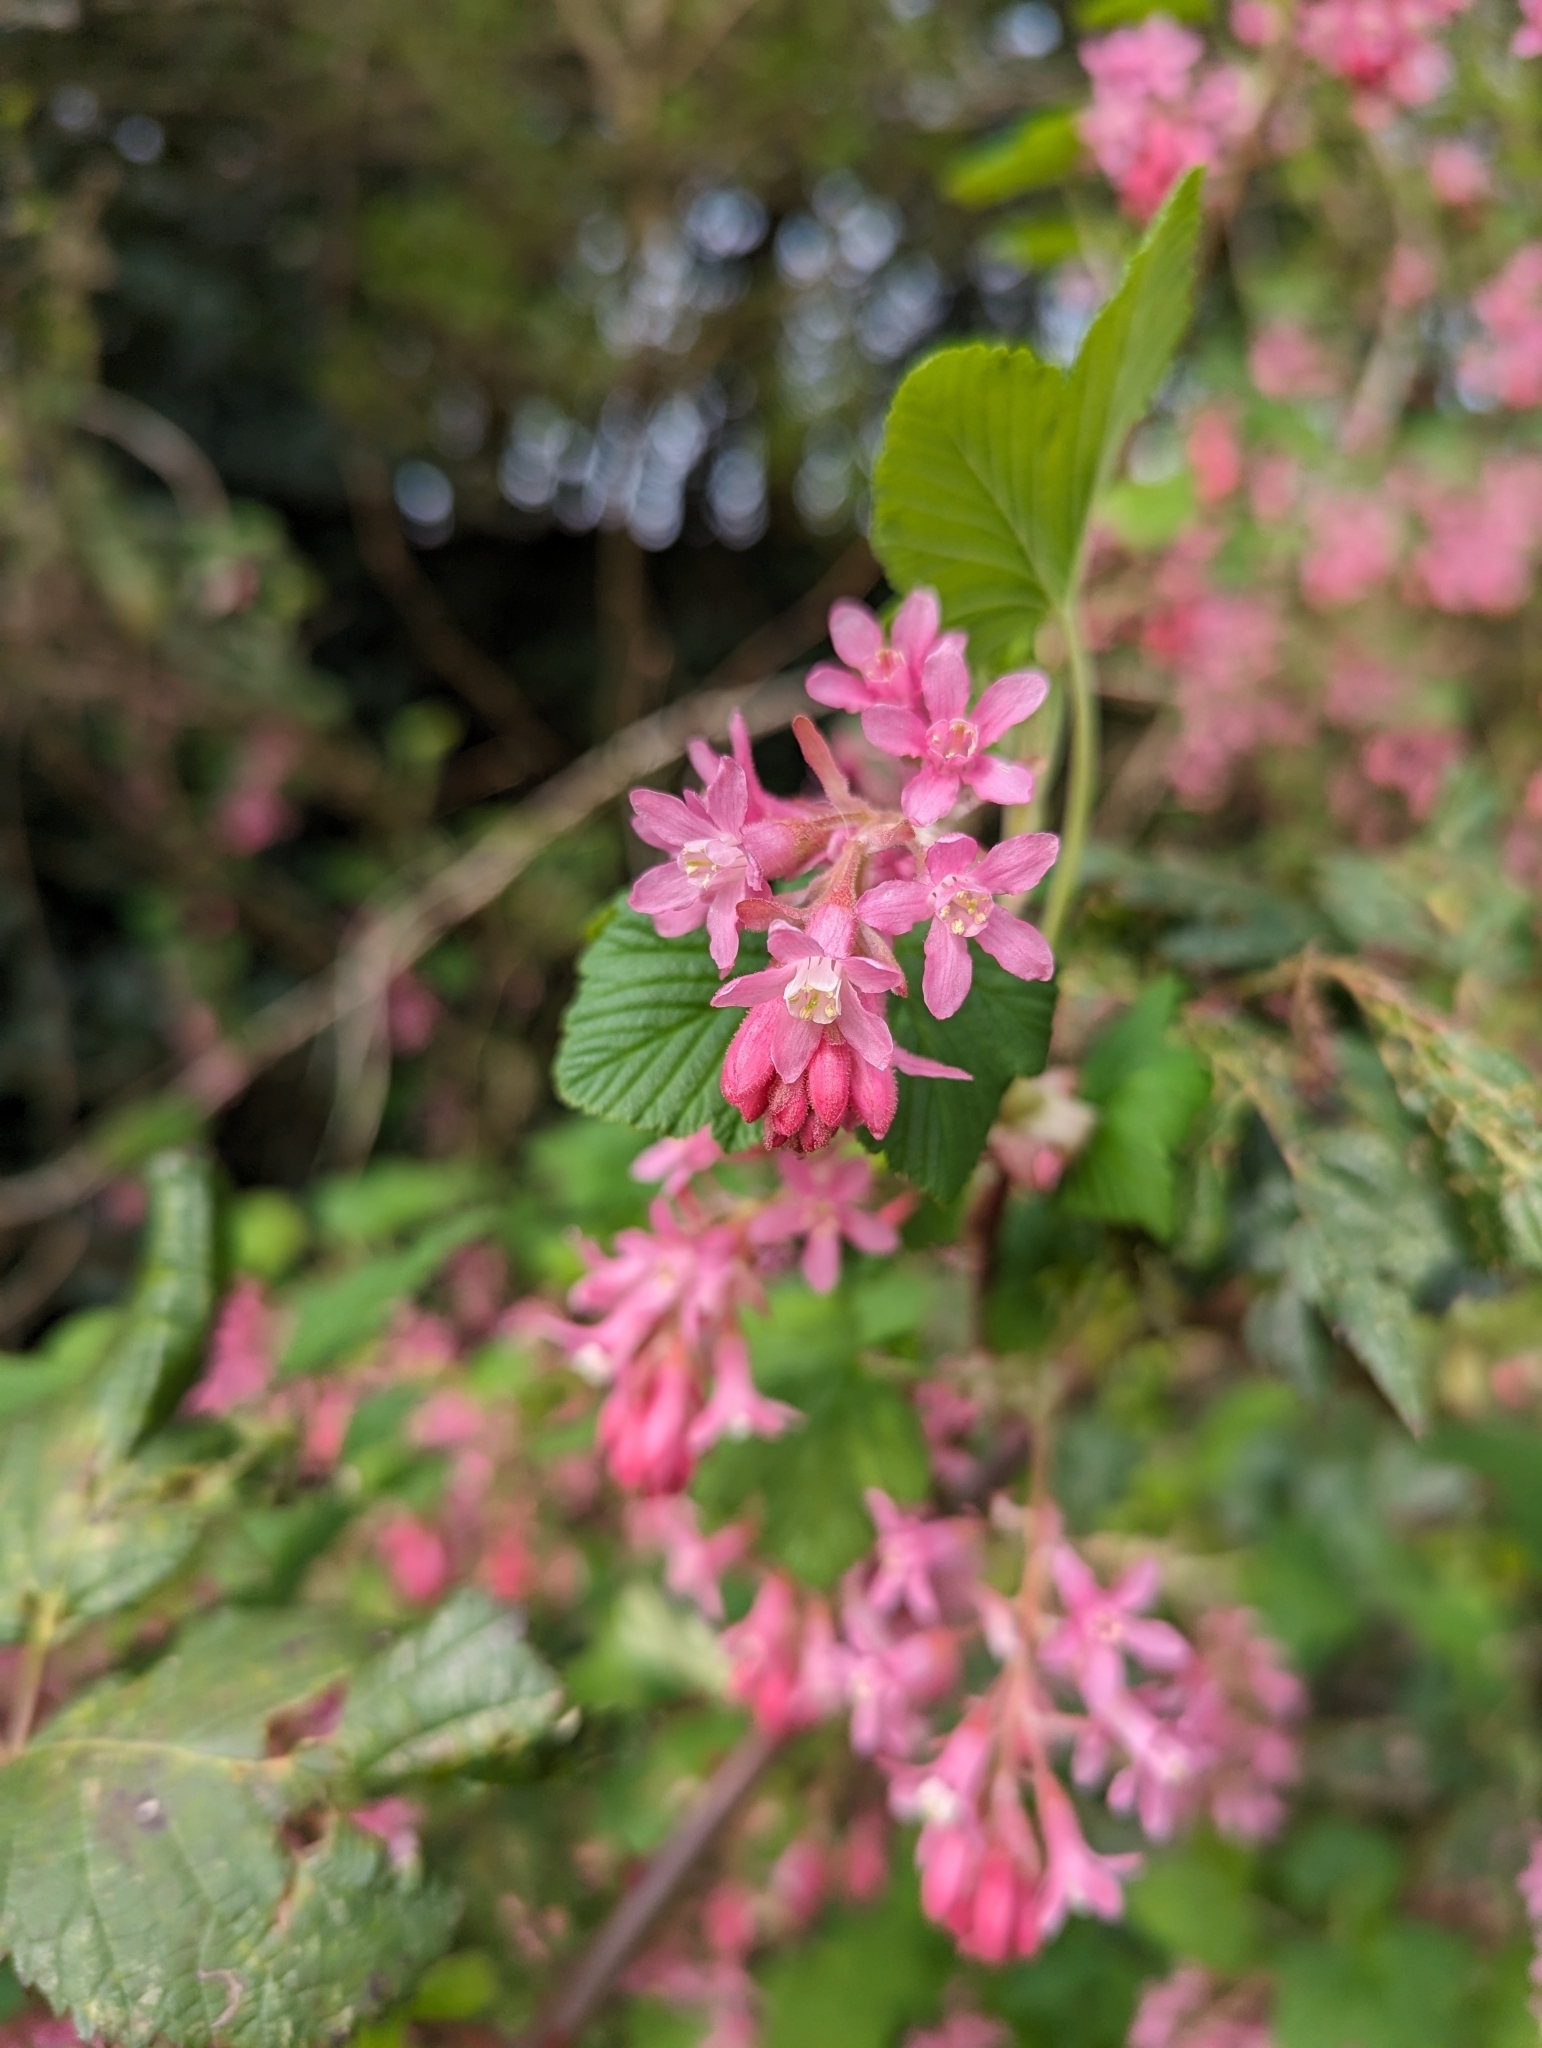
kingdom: Plantae
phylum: Tracheophyta
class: Magnoliopsida
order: Saxifragales
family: Grossulariaceae
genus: Ribes
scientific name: Ribes sanguineum
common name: Flowering currant
